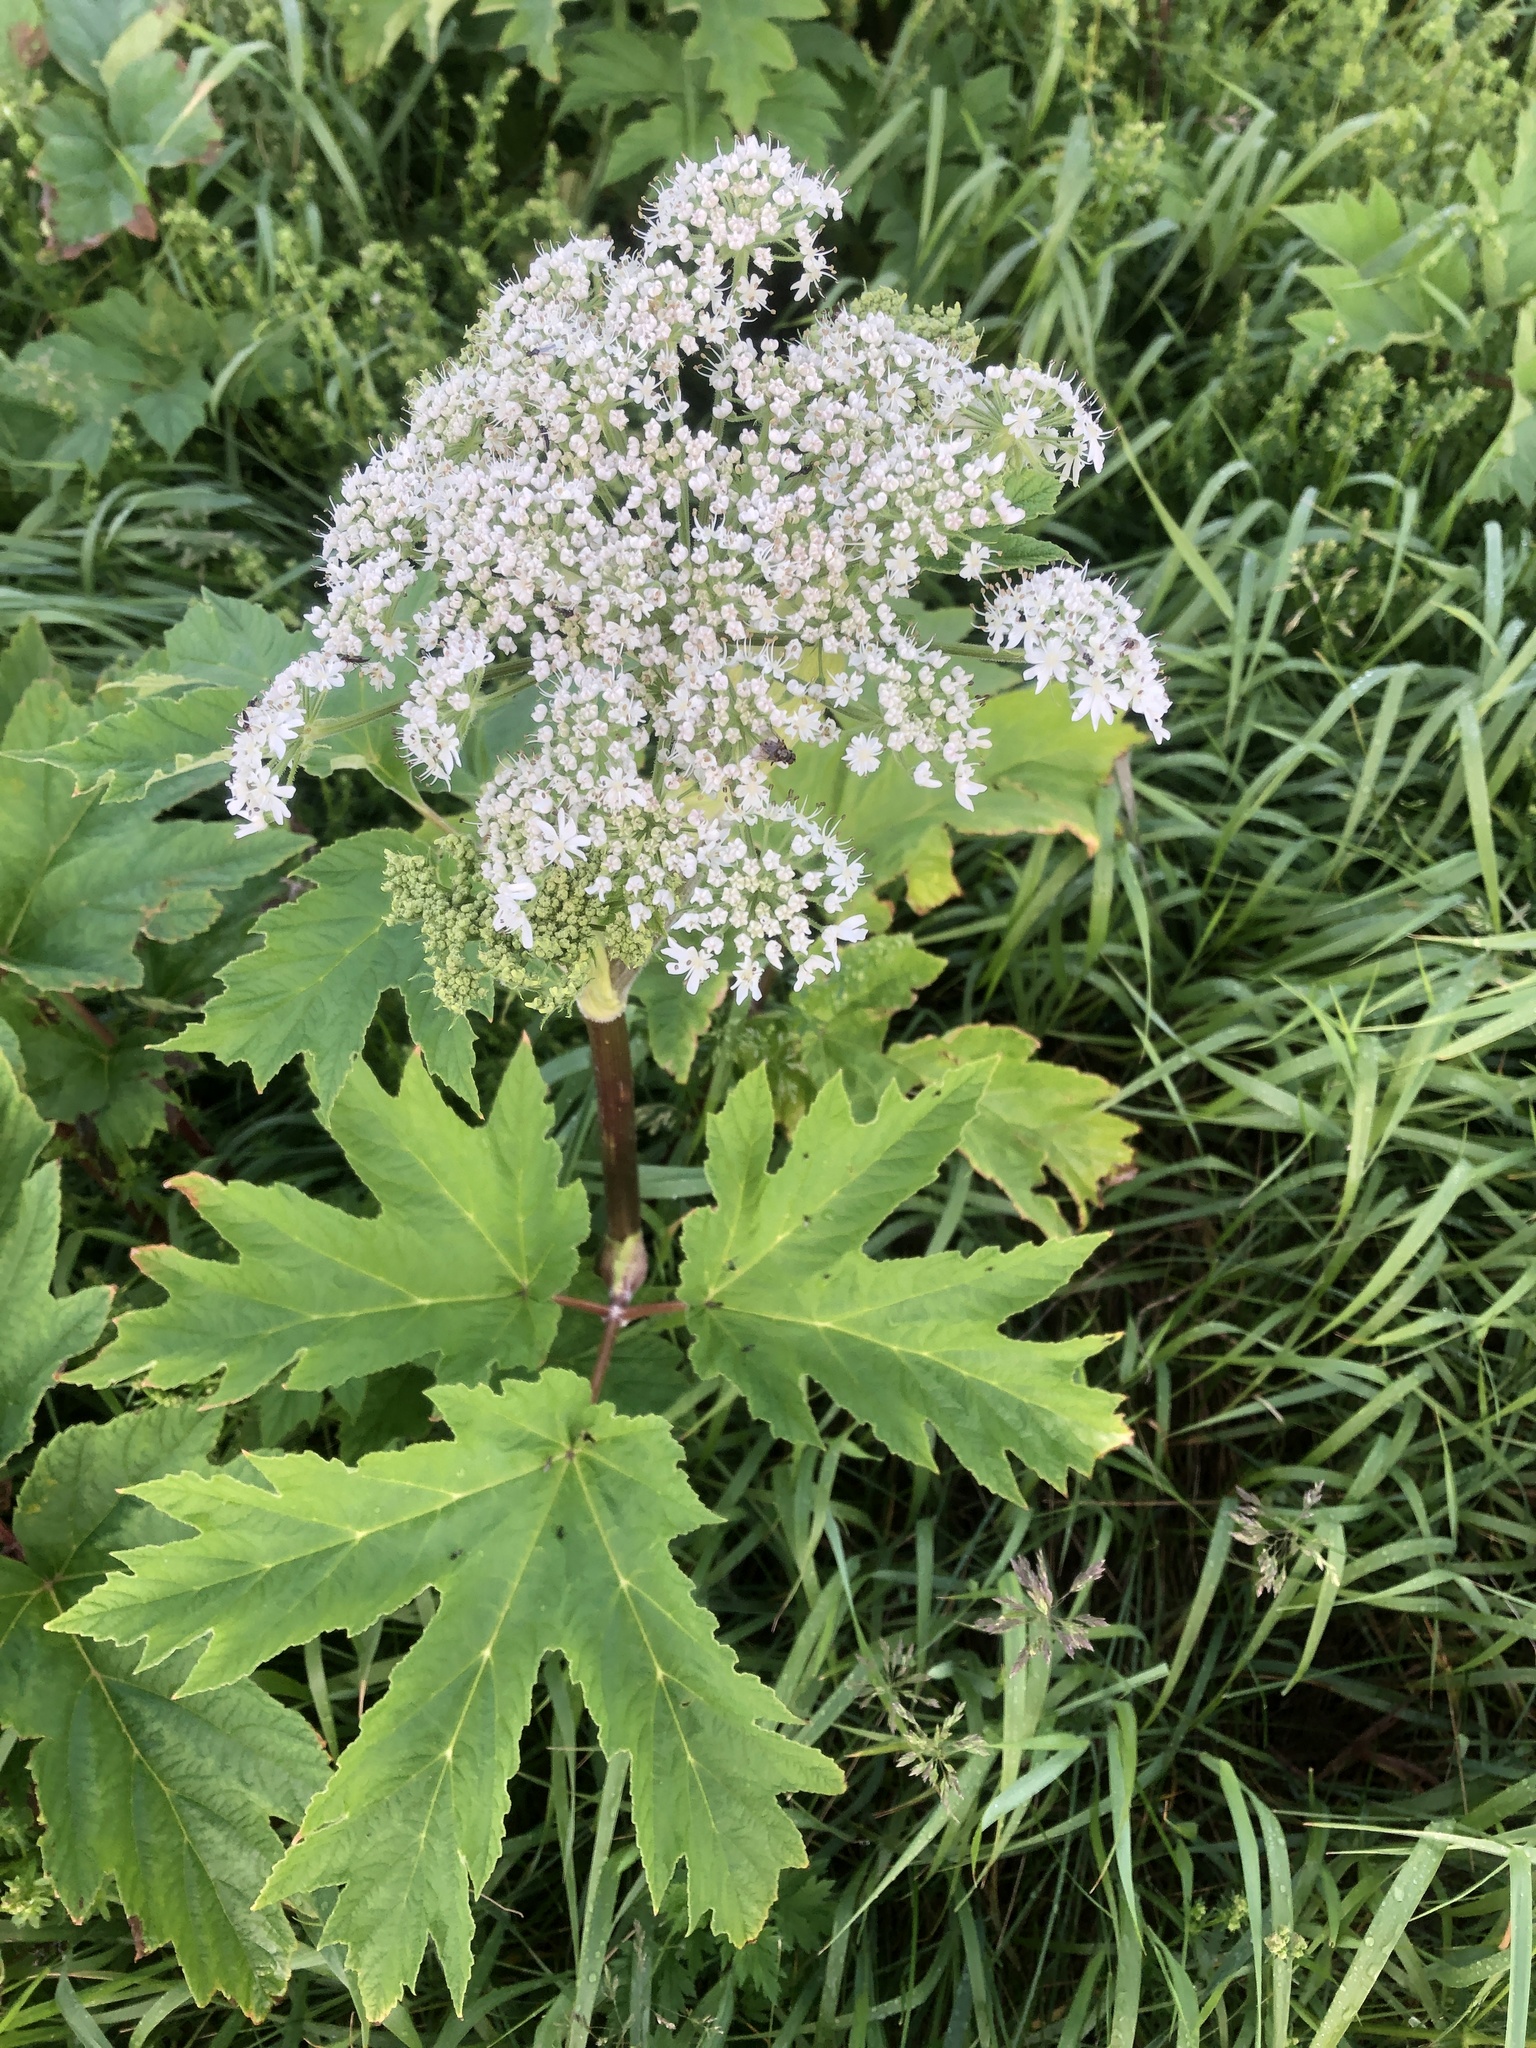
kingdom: Plantae
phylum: Tracheophyta
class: Magnoliopsida
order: Apiales
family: Apiaceae
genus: Heracleum
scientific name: Heracleum maximum
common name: American cow parsnip
